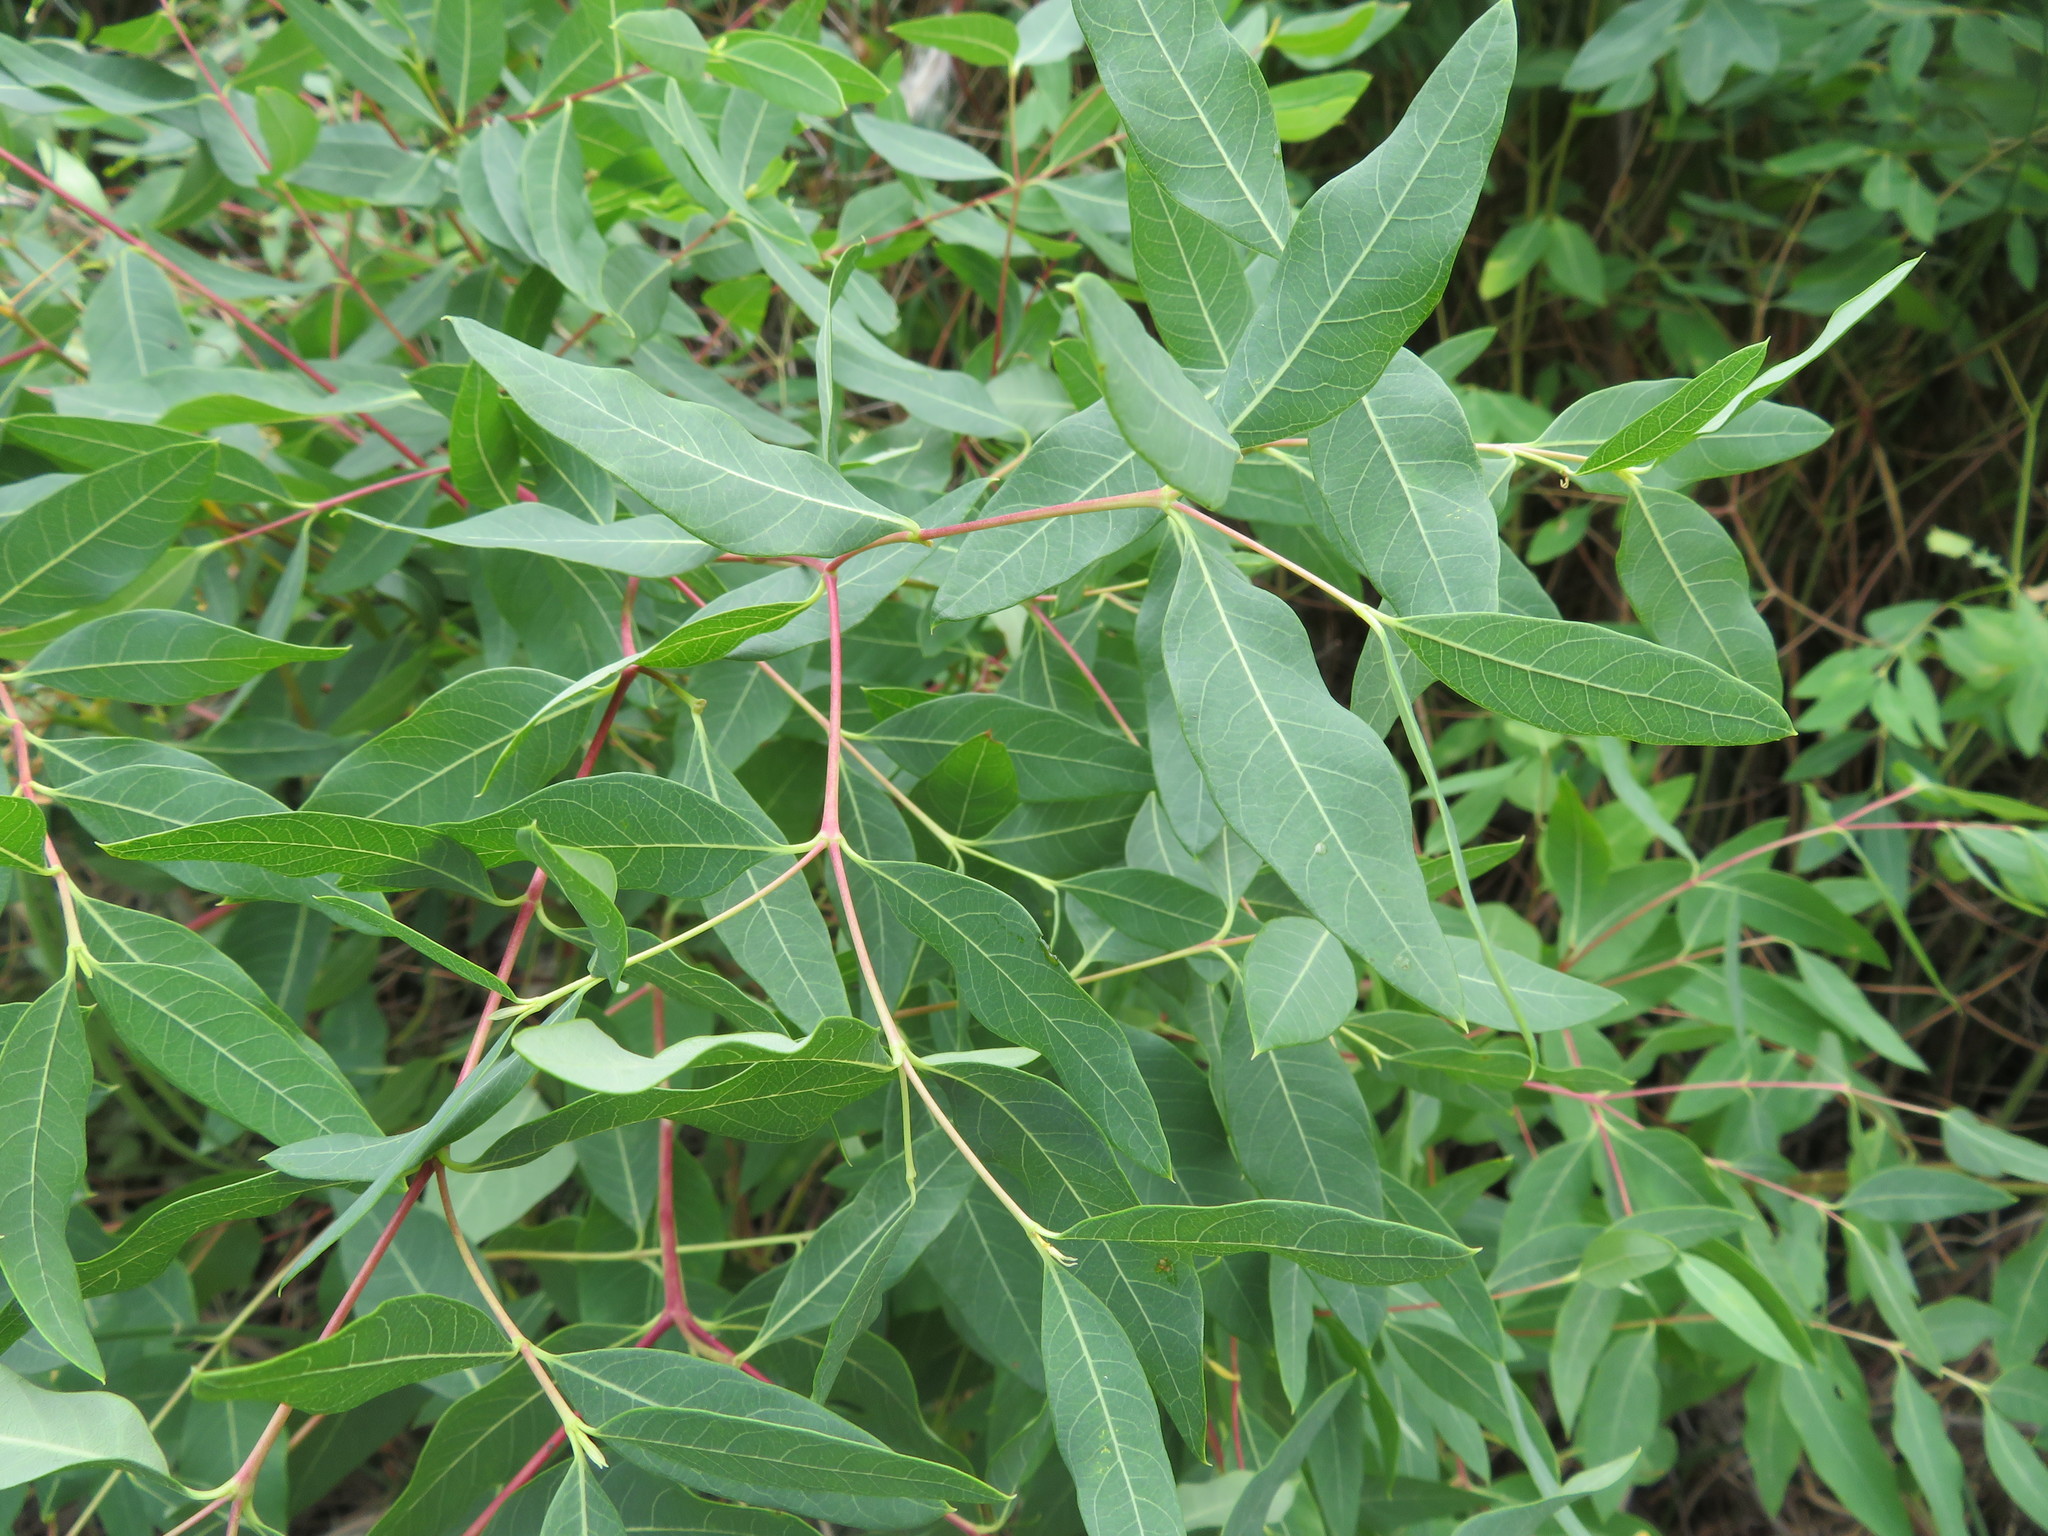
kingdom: Plantae
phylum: Tracheophyta
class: Magnoliopsida
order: Gentianales
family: Apocynaceae
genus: Apocynum
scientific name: Apocynum cannabinum
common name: Hemp dogbane
